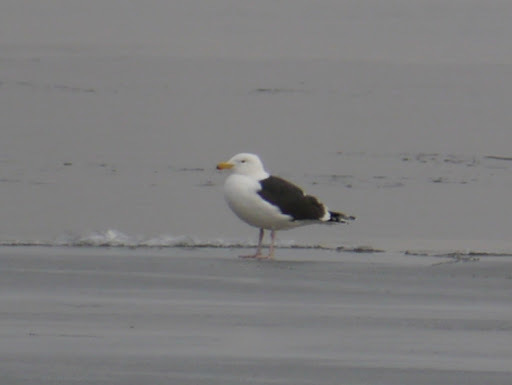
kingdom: Animalia
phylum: Chordata
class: Aves
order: Charadriiformes
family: Laridae
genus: Larus
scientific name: Larus marinus
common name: Great black-backed gull
